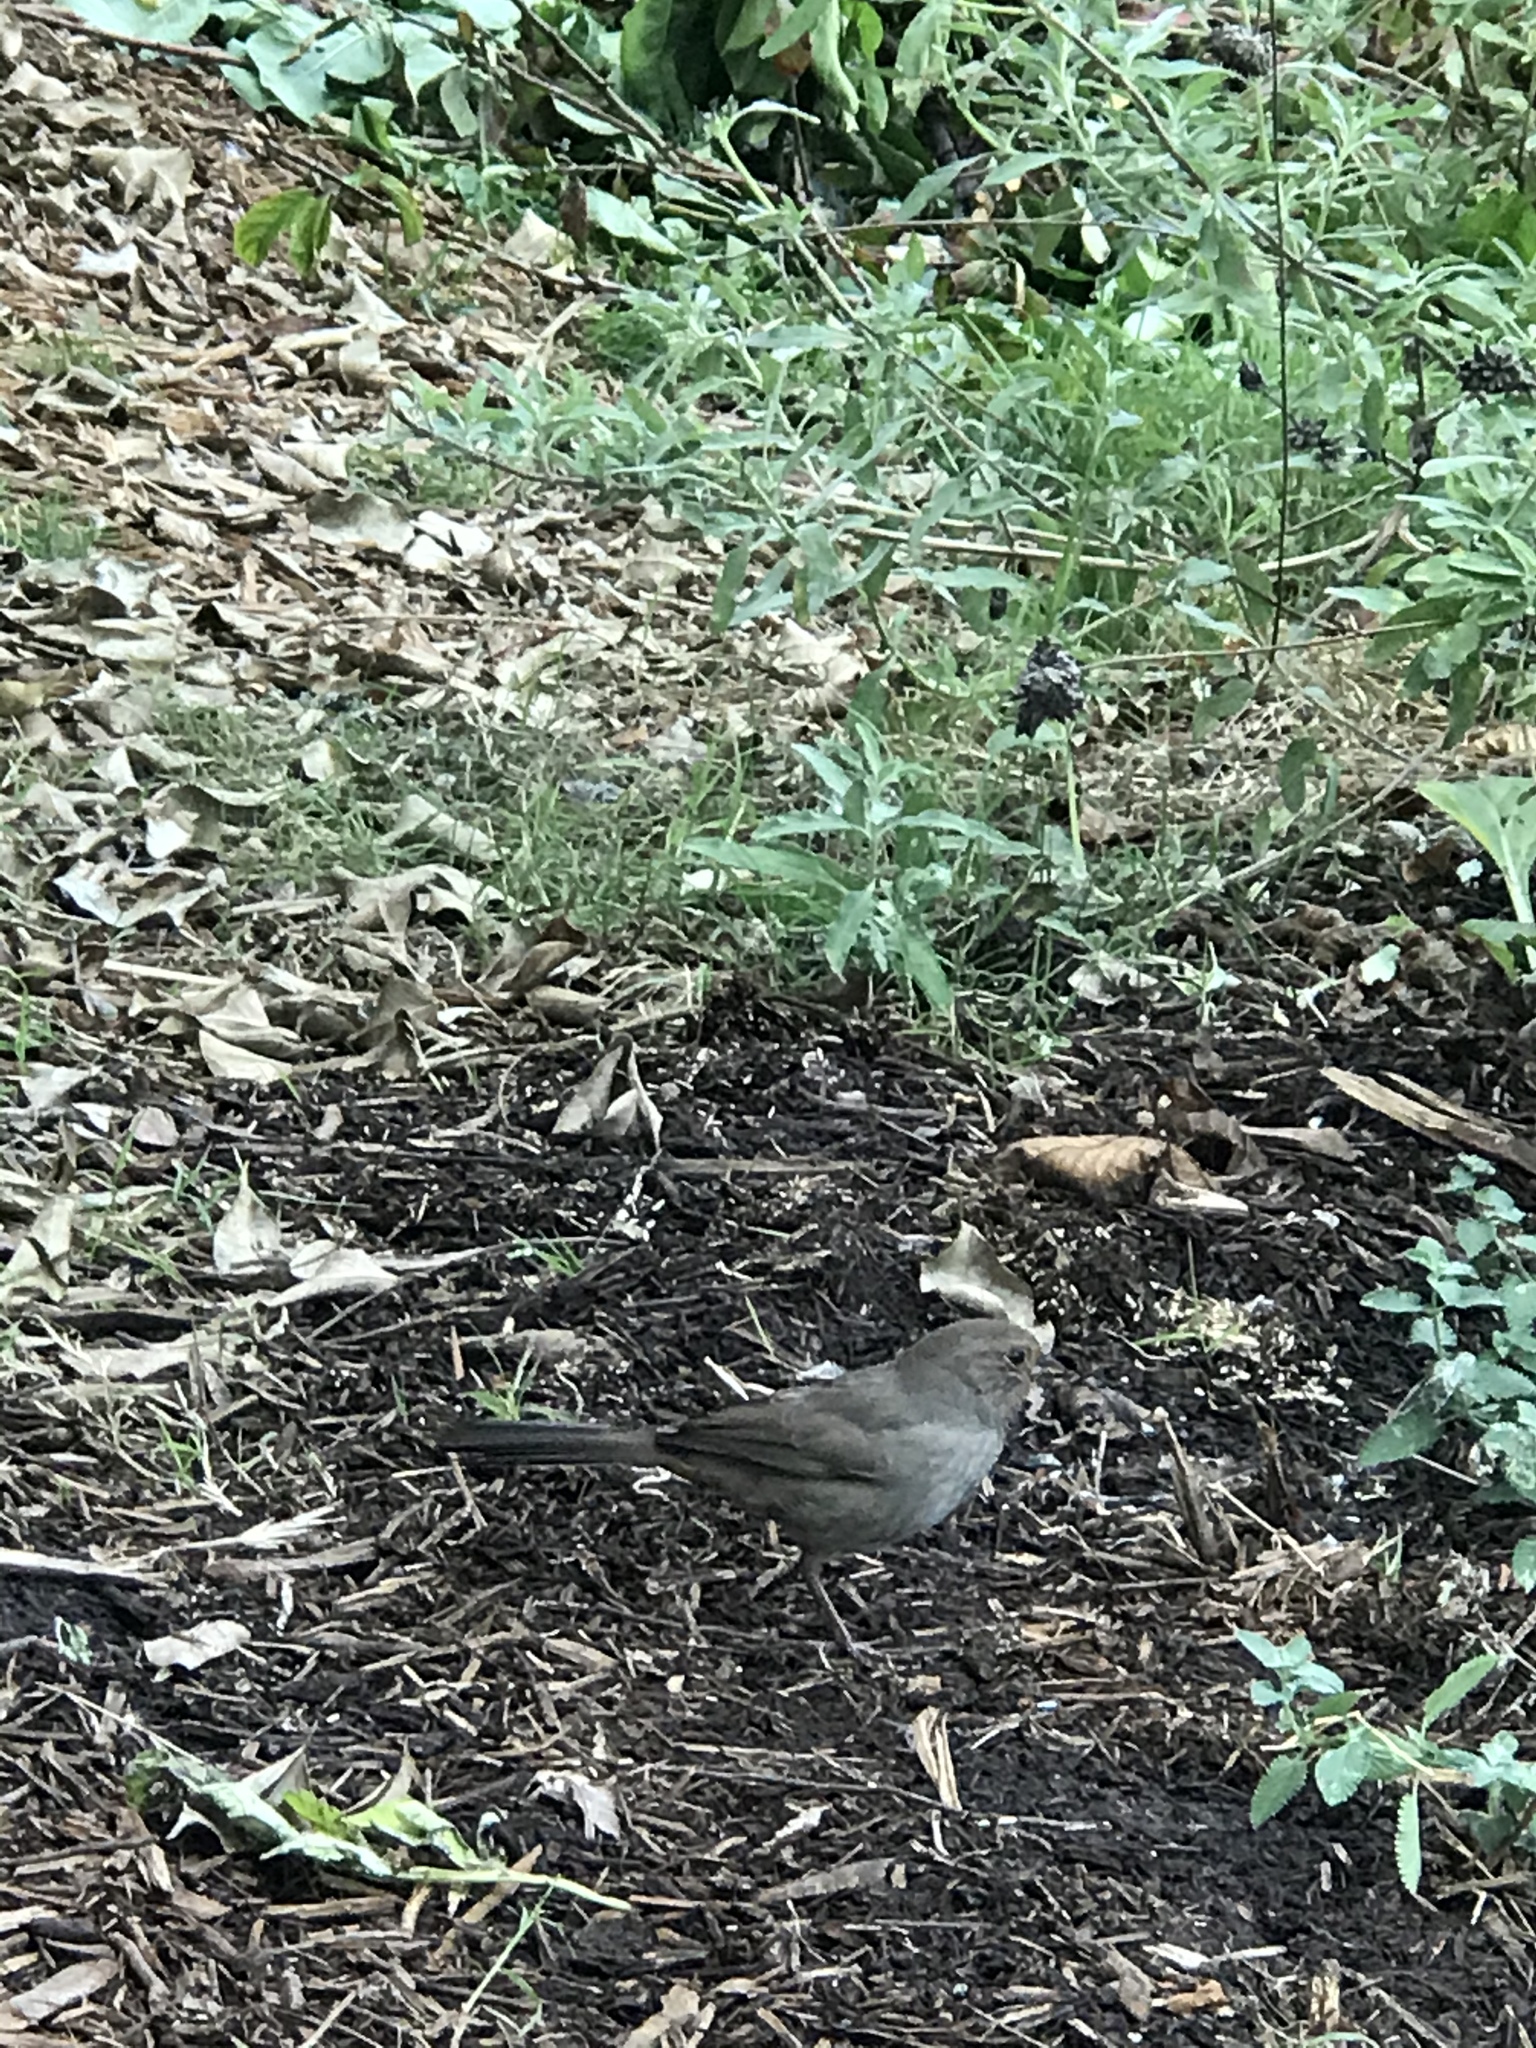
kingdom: Animalia
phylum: Chordata
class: Aves
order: Passeriformes
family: Passerellidae
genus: Melozone
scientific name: Melozone crissalis
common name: California towhee
